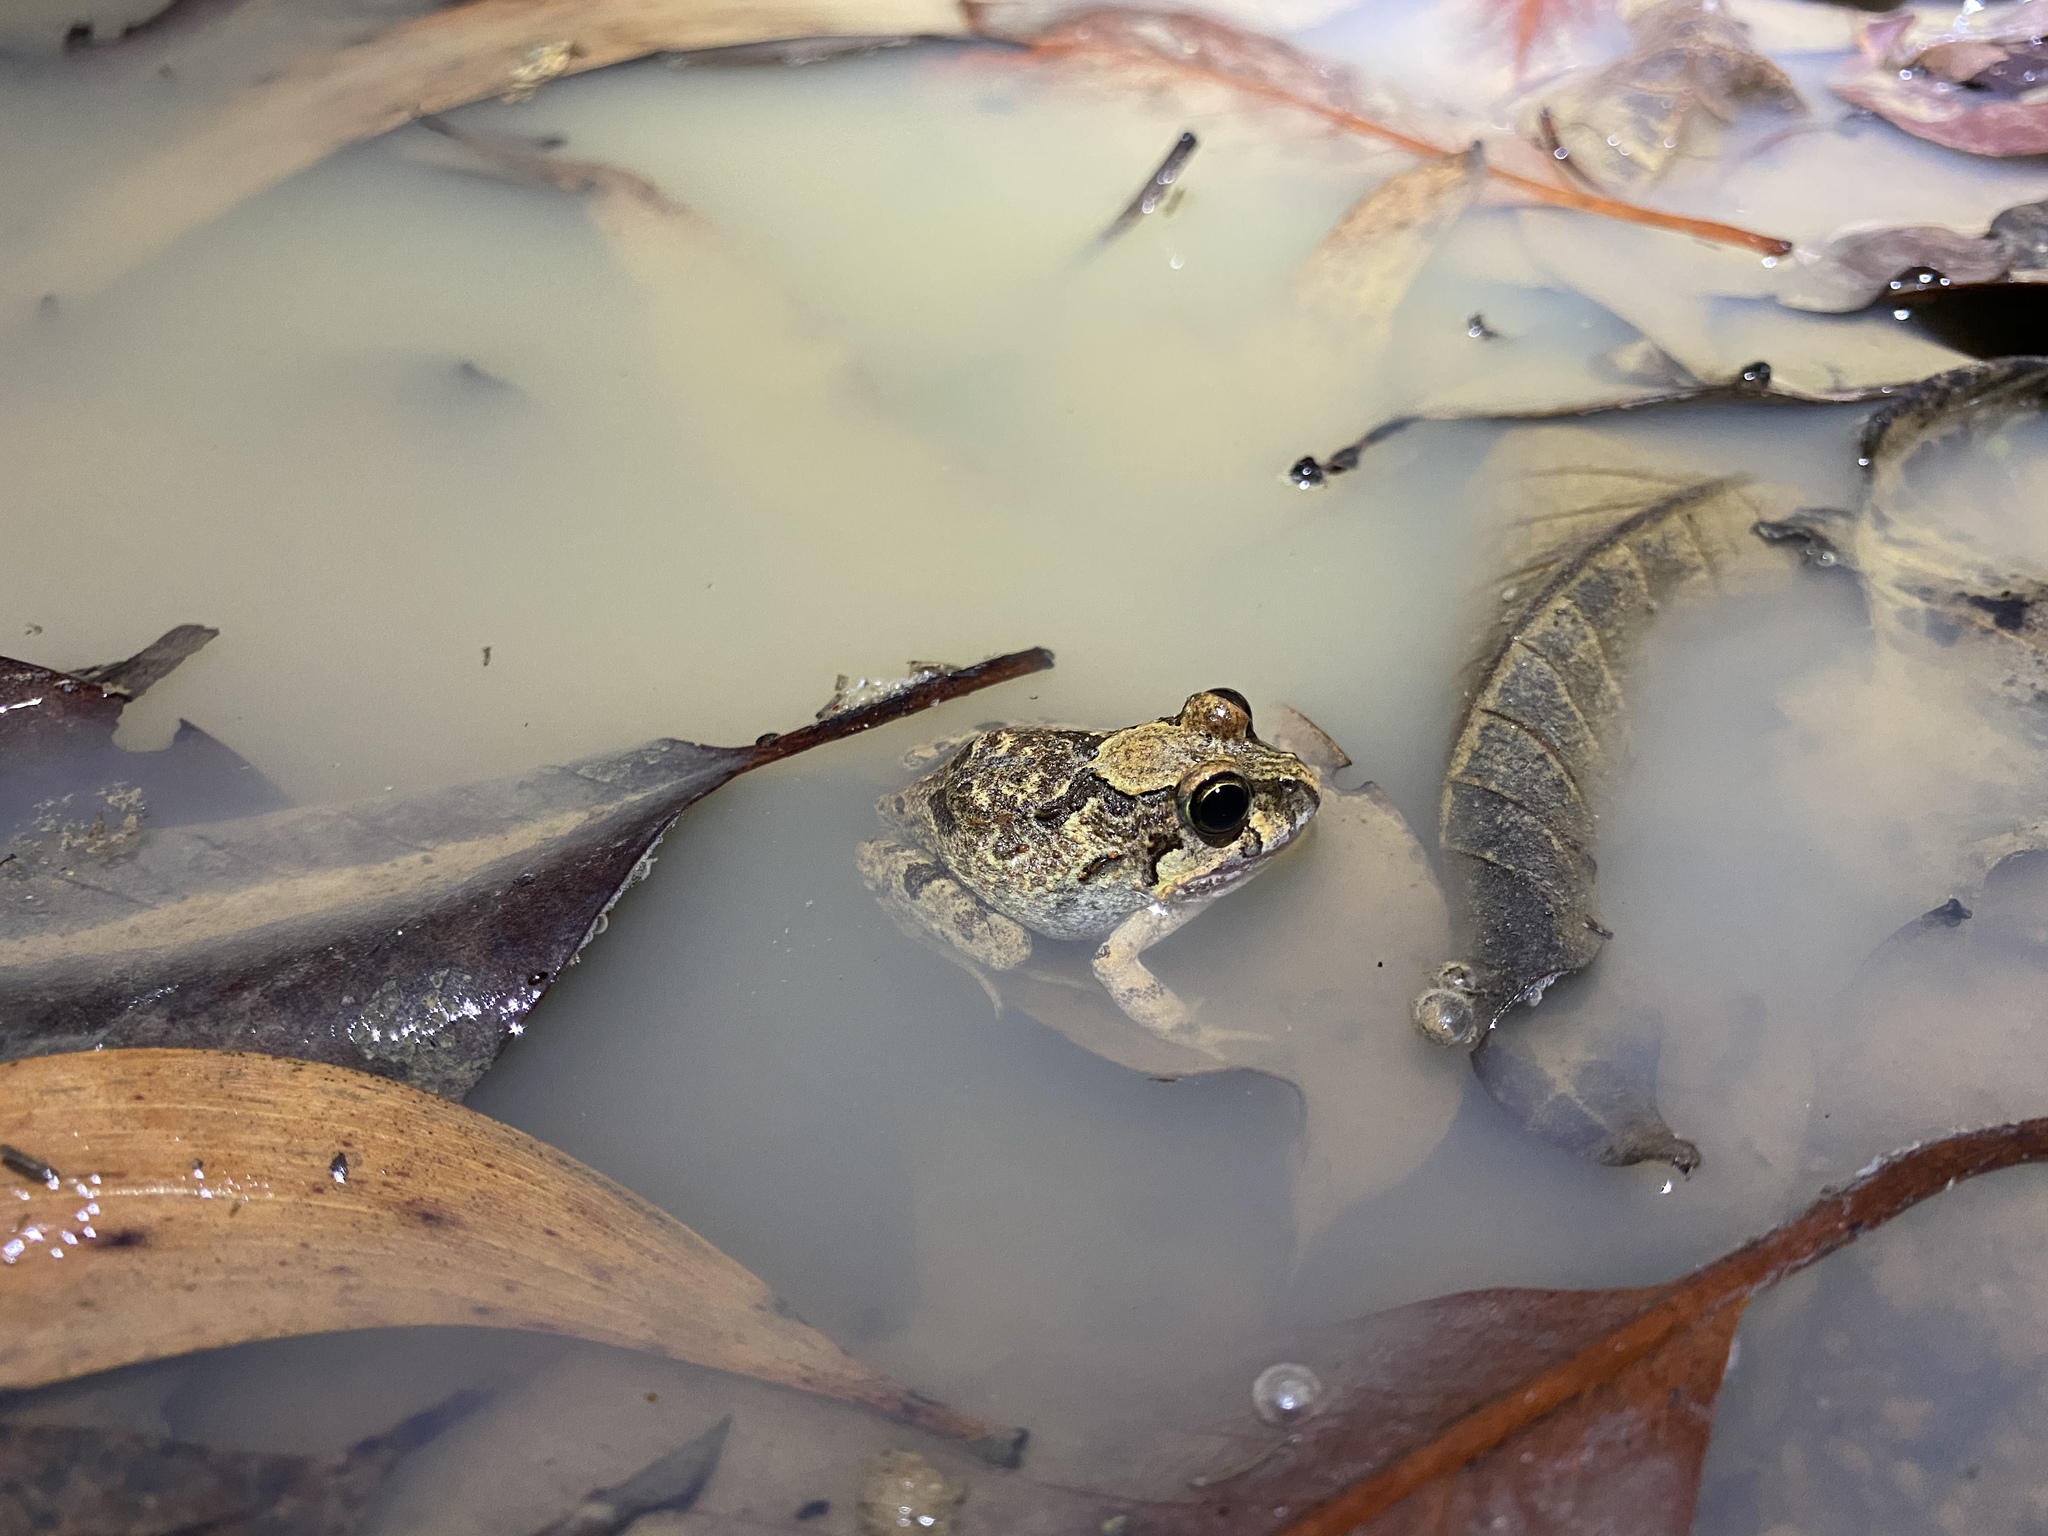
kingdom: Animalia
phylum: Chordata
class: Amphibia
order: Anura
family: Limnodynastidae
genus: Platyplectrum
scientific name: Platyplectrum ornatum
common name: Ornate burrowing frog
